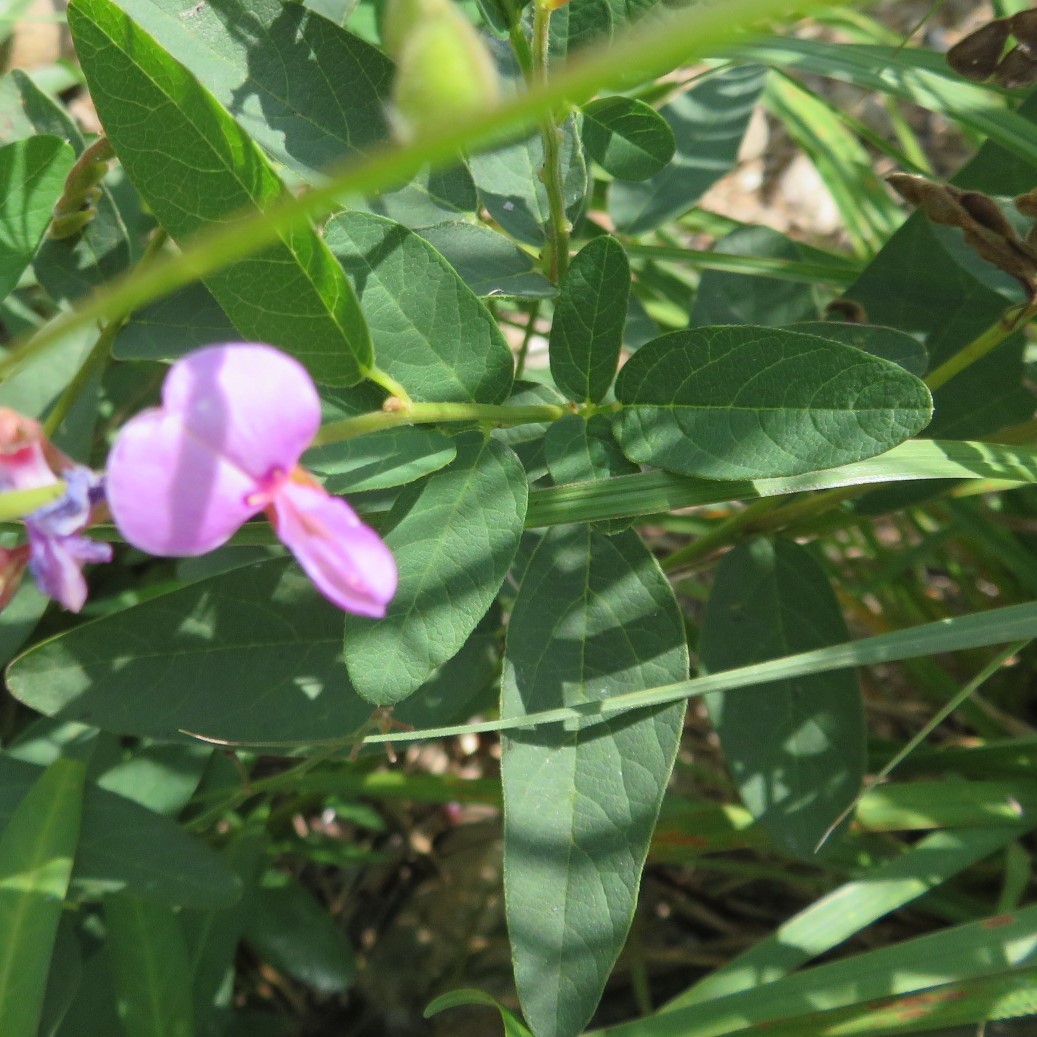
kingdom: Plantae
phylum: Tracheophyta
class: Magnoliopsida
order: Fabales
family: Fabaceae
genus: Desmodium
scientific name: Desmodium canadense
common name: Canada tick-trefoil
